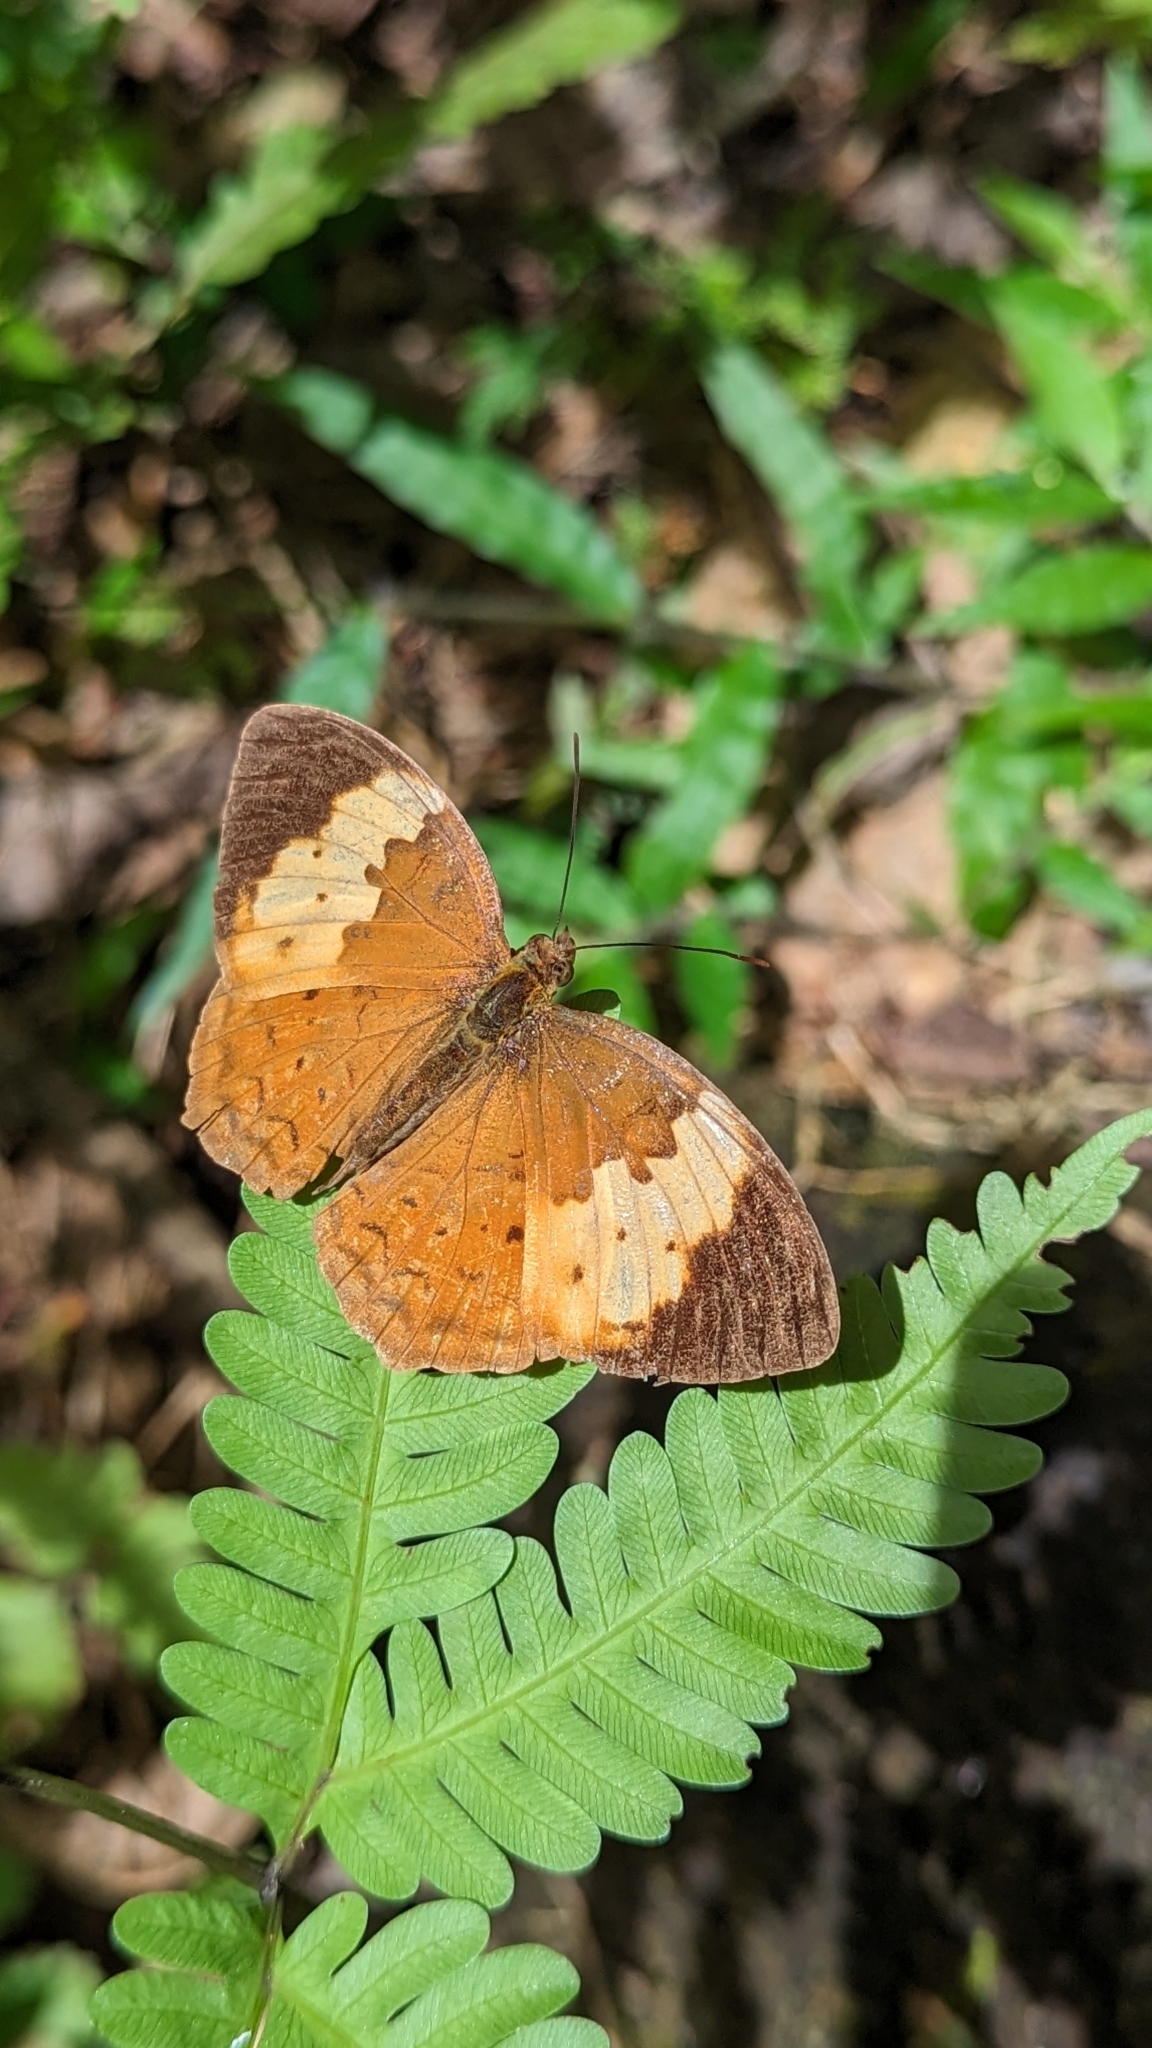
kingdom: Animalia
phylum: Arthropoda
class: Insecta
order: Lepidoptera
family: Nymphalidae
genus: Cupha
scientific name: Cupha erymanthis
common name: Rustic
